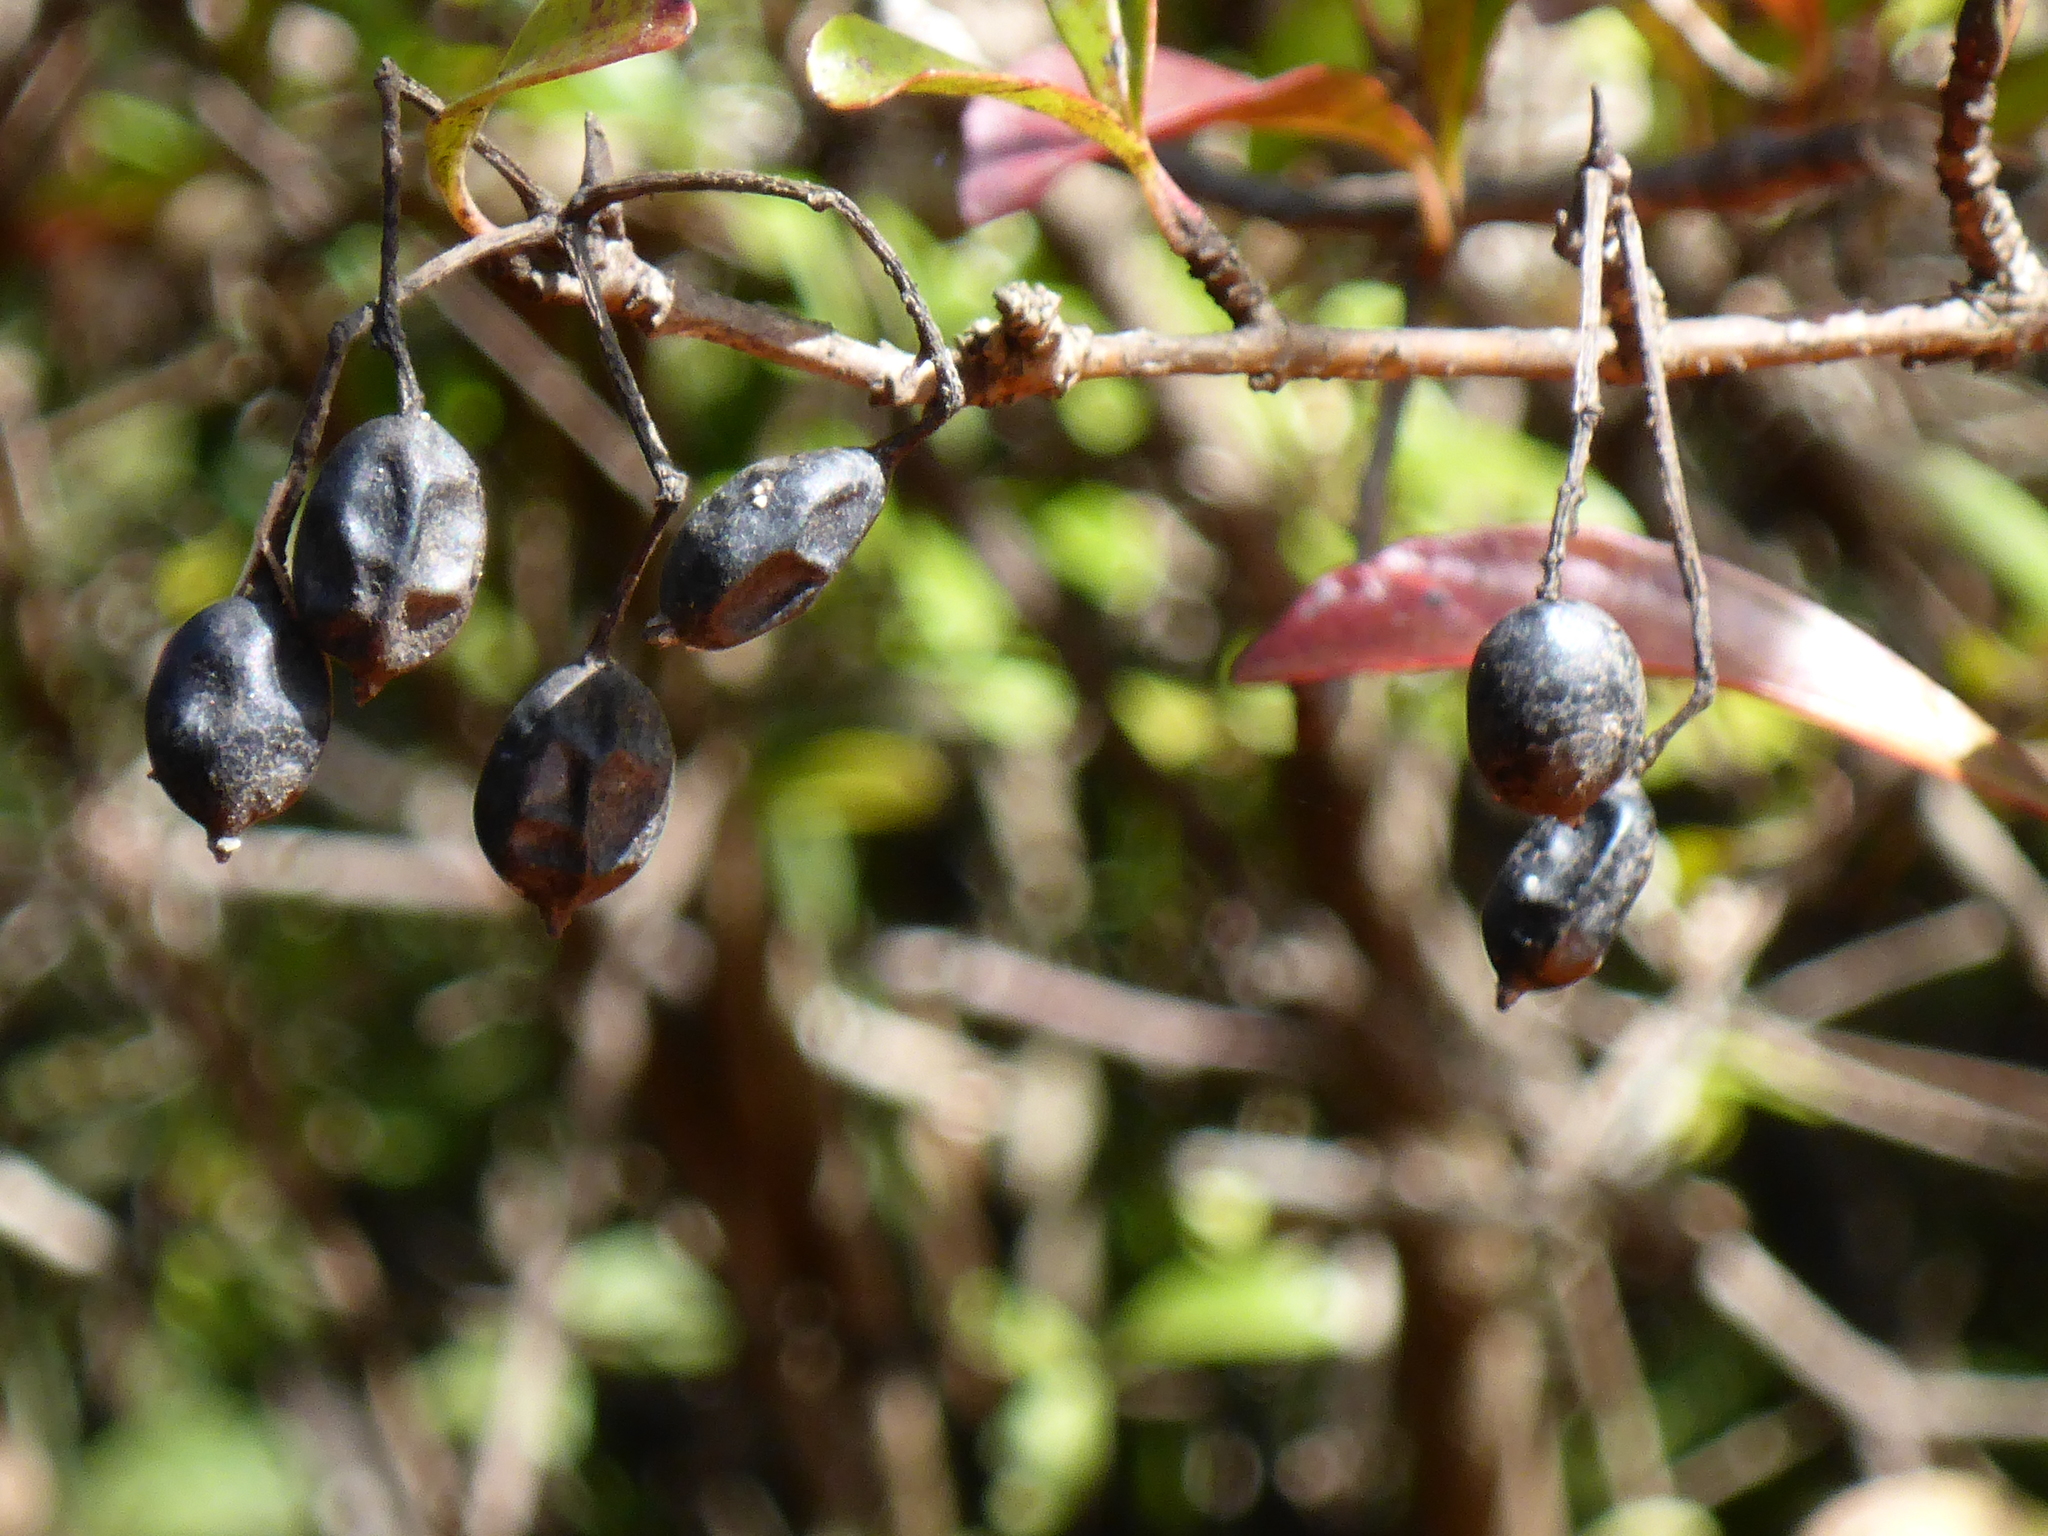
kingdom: Plantae
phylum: Tracheophyta
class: Magnoliopsida
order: Dipsacales
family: Viburnaceae
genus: Viburnum
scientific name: Viburnum obovatum
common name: Walter's viburnum
